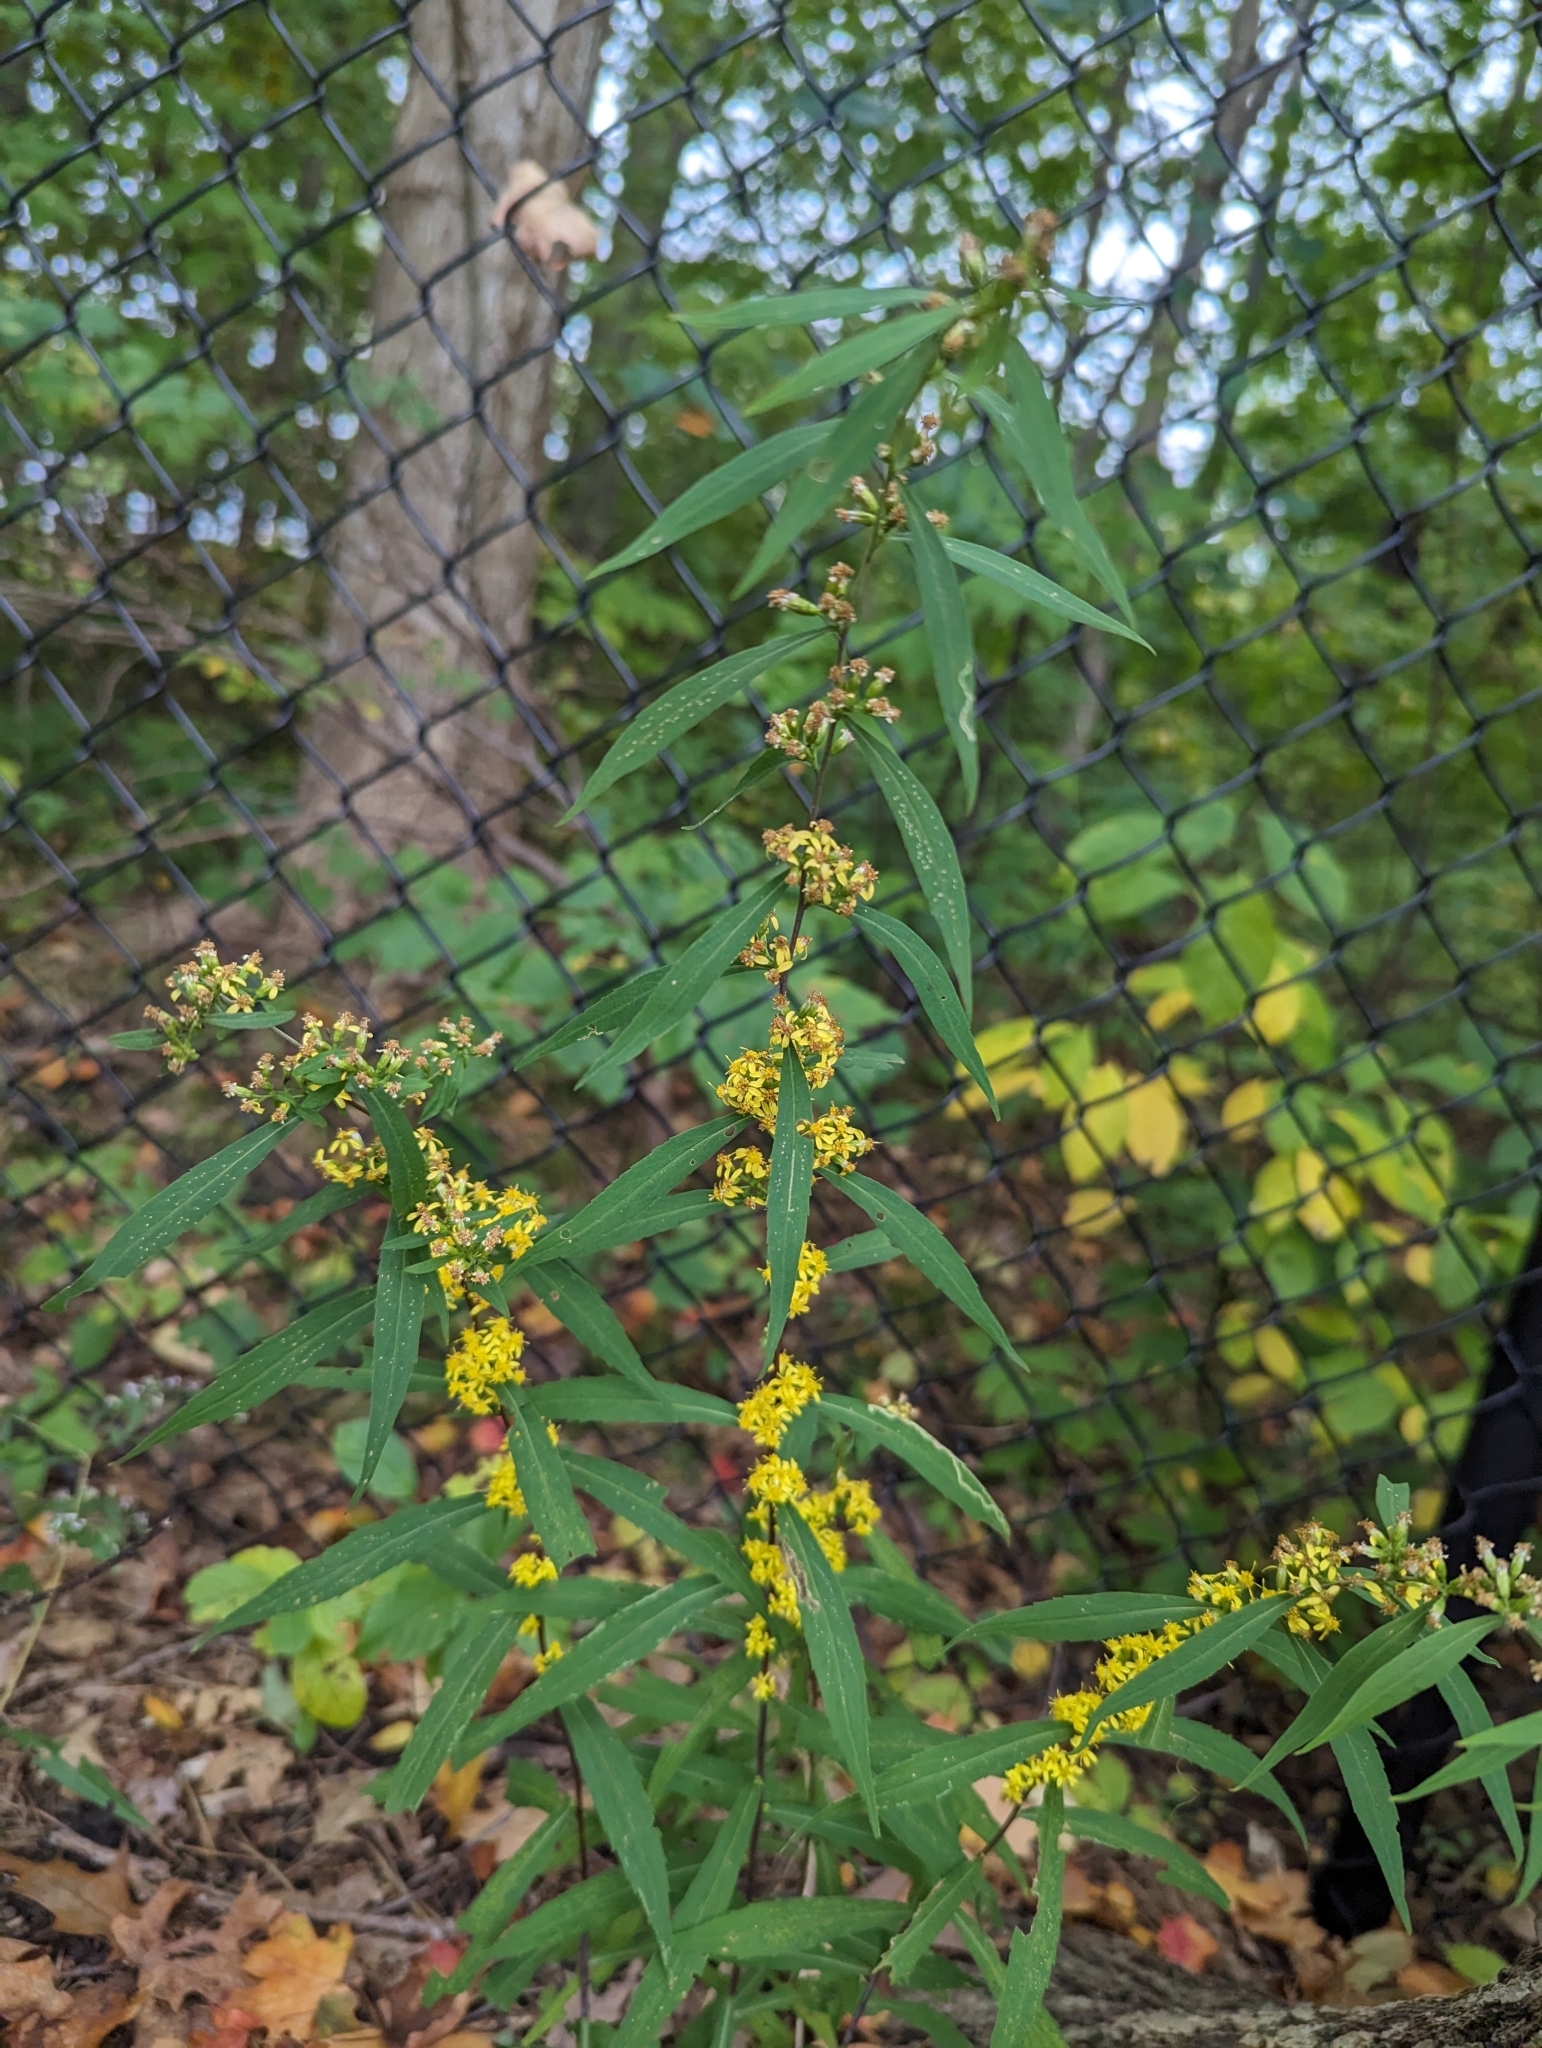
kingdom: Plantae
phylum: Tracheophyta
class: Magnoliopsida
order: Asterales
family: Asteraceae
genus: Solidago
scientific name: Solidago caesia
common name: Woodland goldenrod
